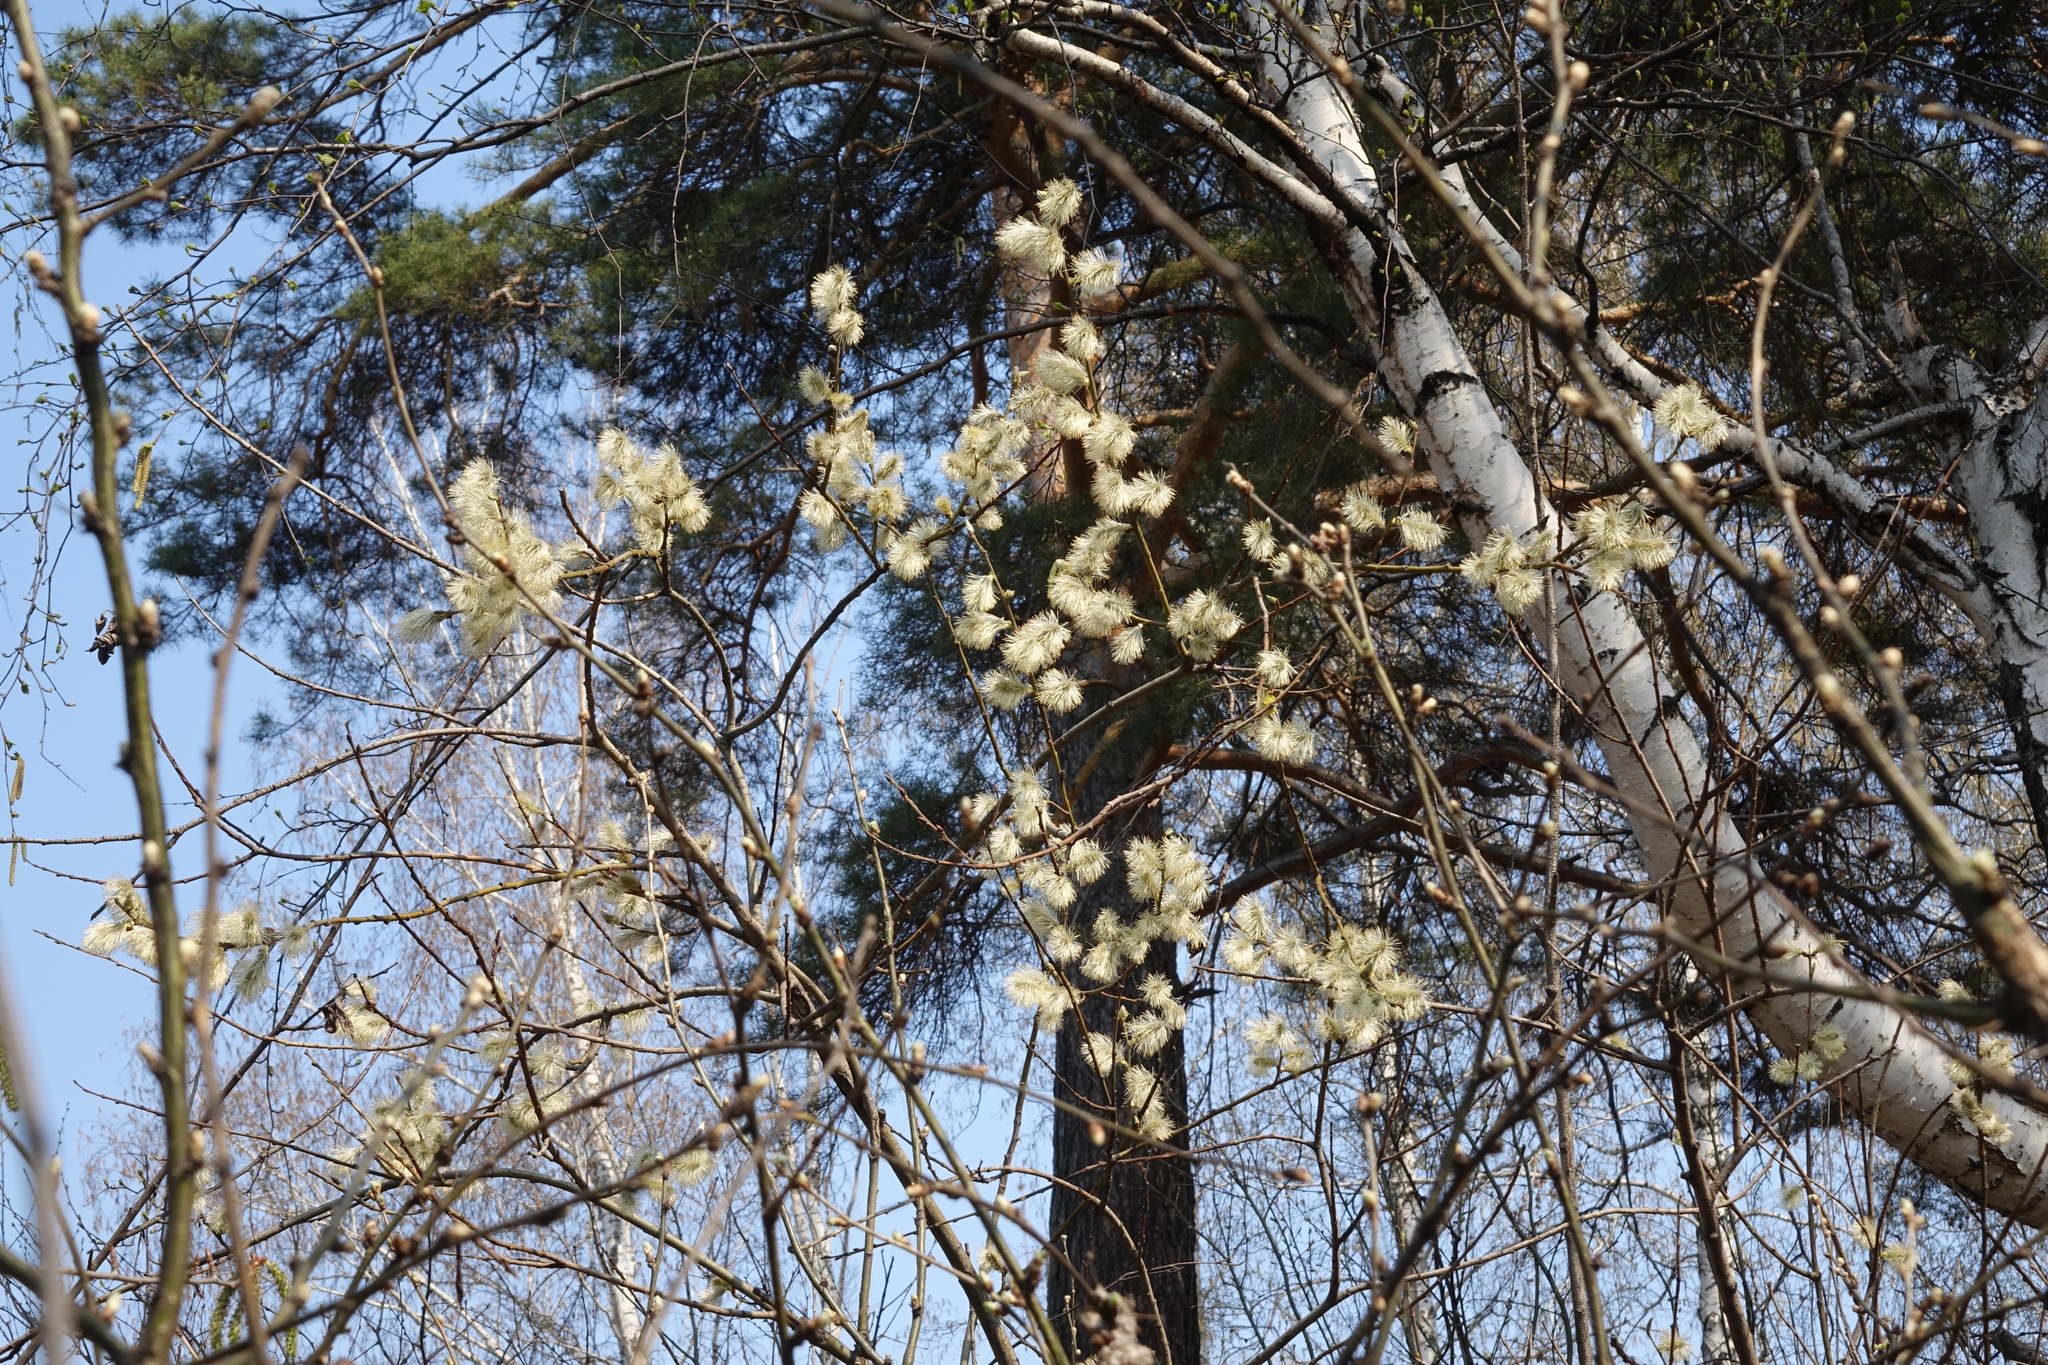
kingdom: Plantae
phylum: Tracheophyta
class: Magnoliopsida
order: Malpighiales
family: Salicaceae
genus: Salix
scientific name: Salix caprea
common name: Goat willow
